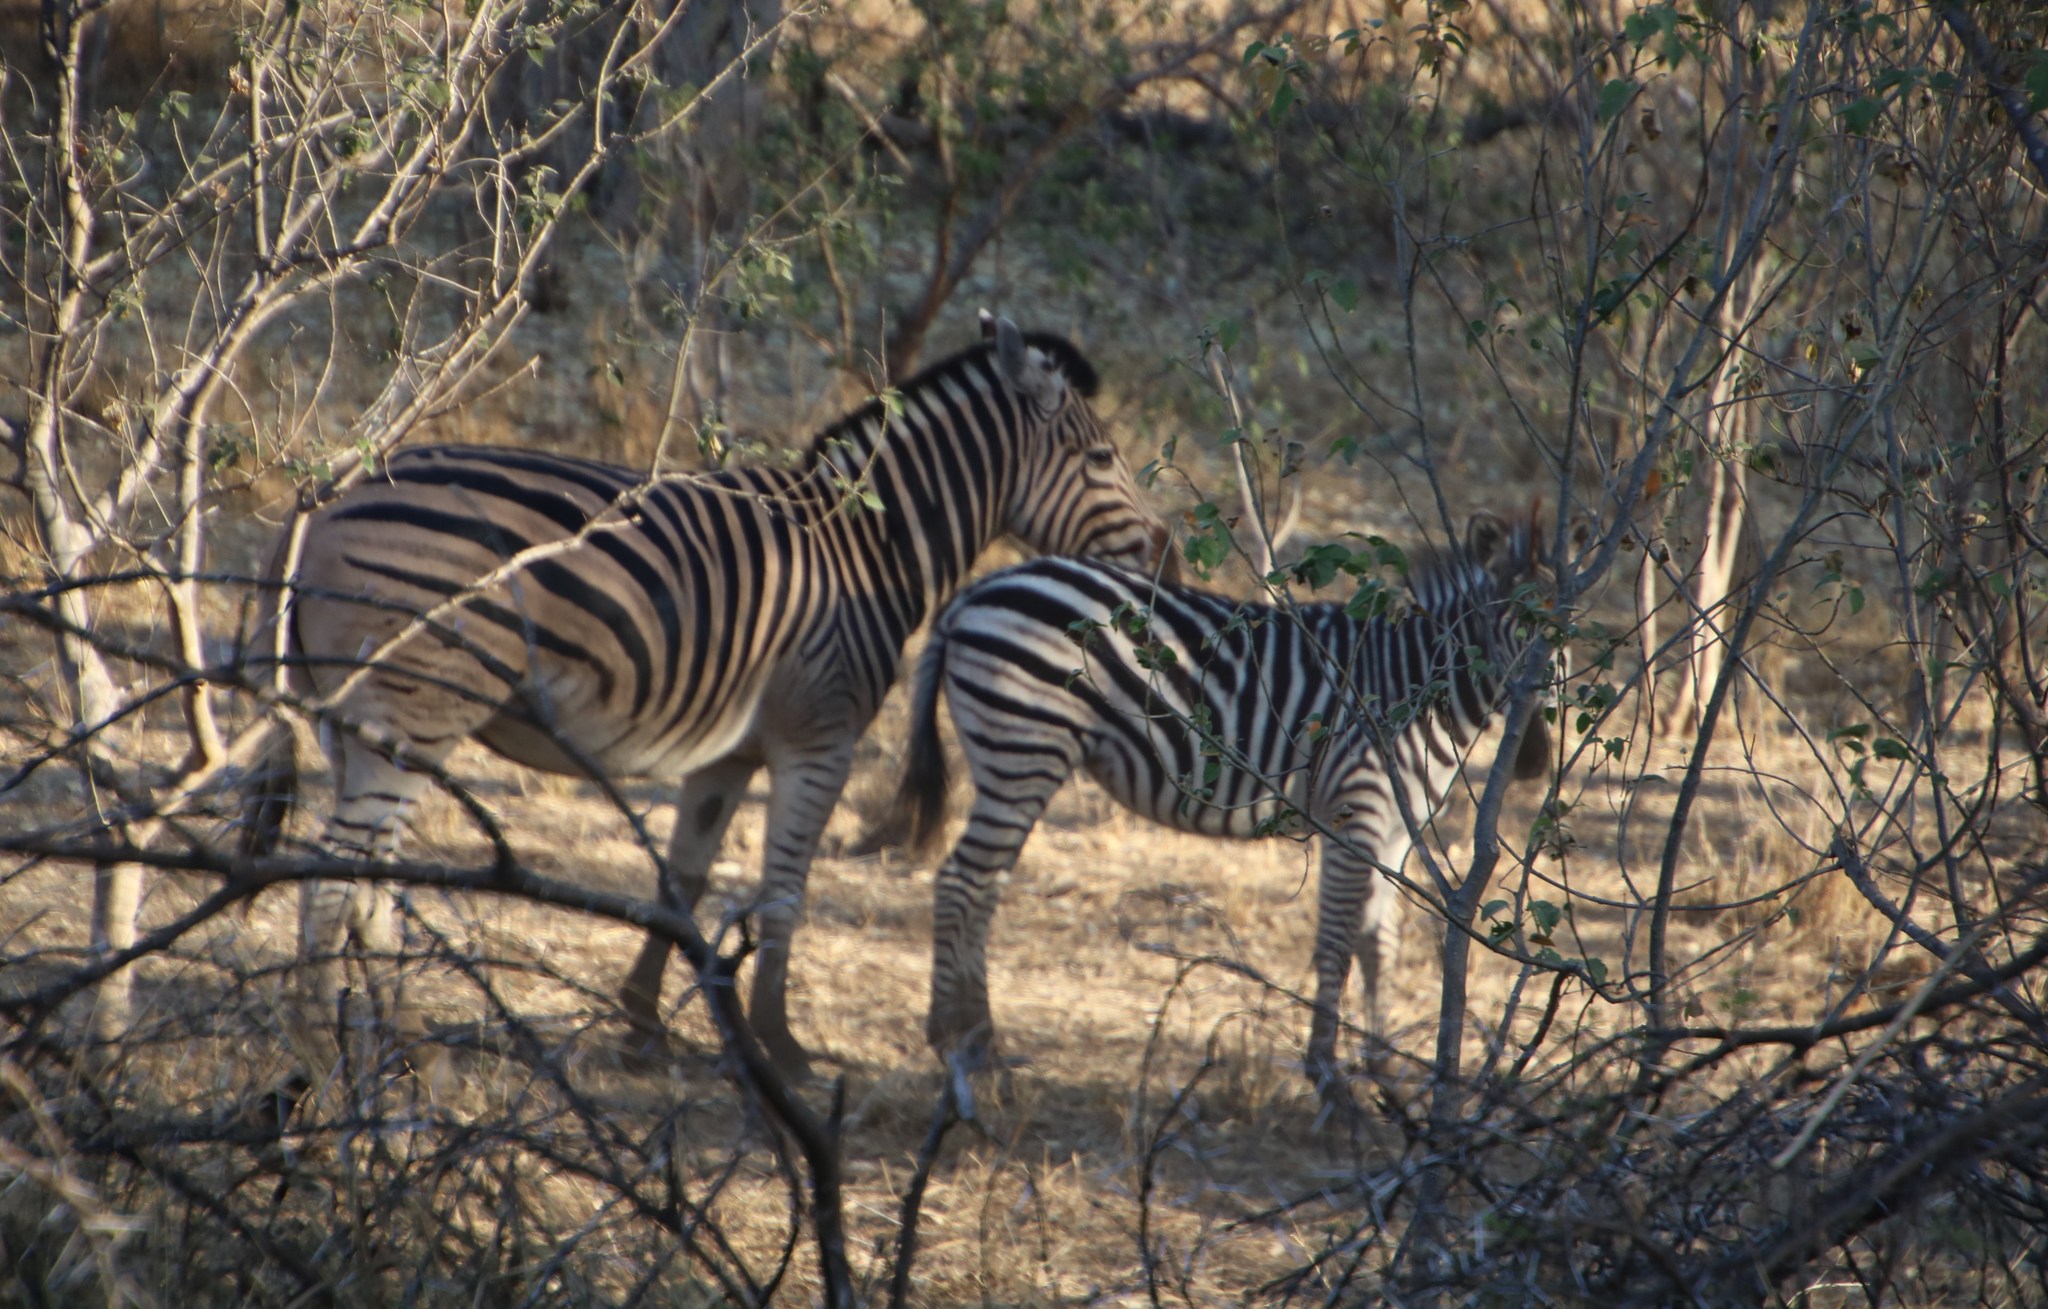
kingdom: Animalia
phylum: Chordata
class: Mammalia
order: Perissodactyla
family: Equidae
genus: Equus
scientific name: Equus quagga
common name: Plains zebra
